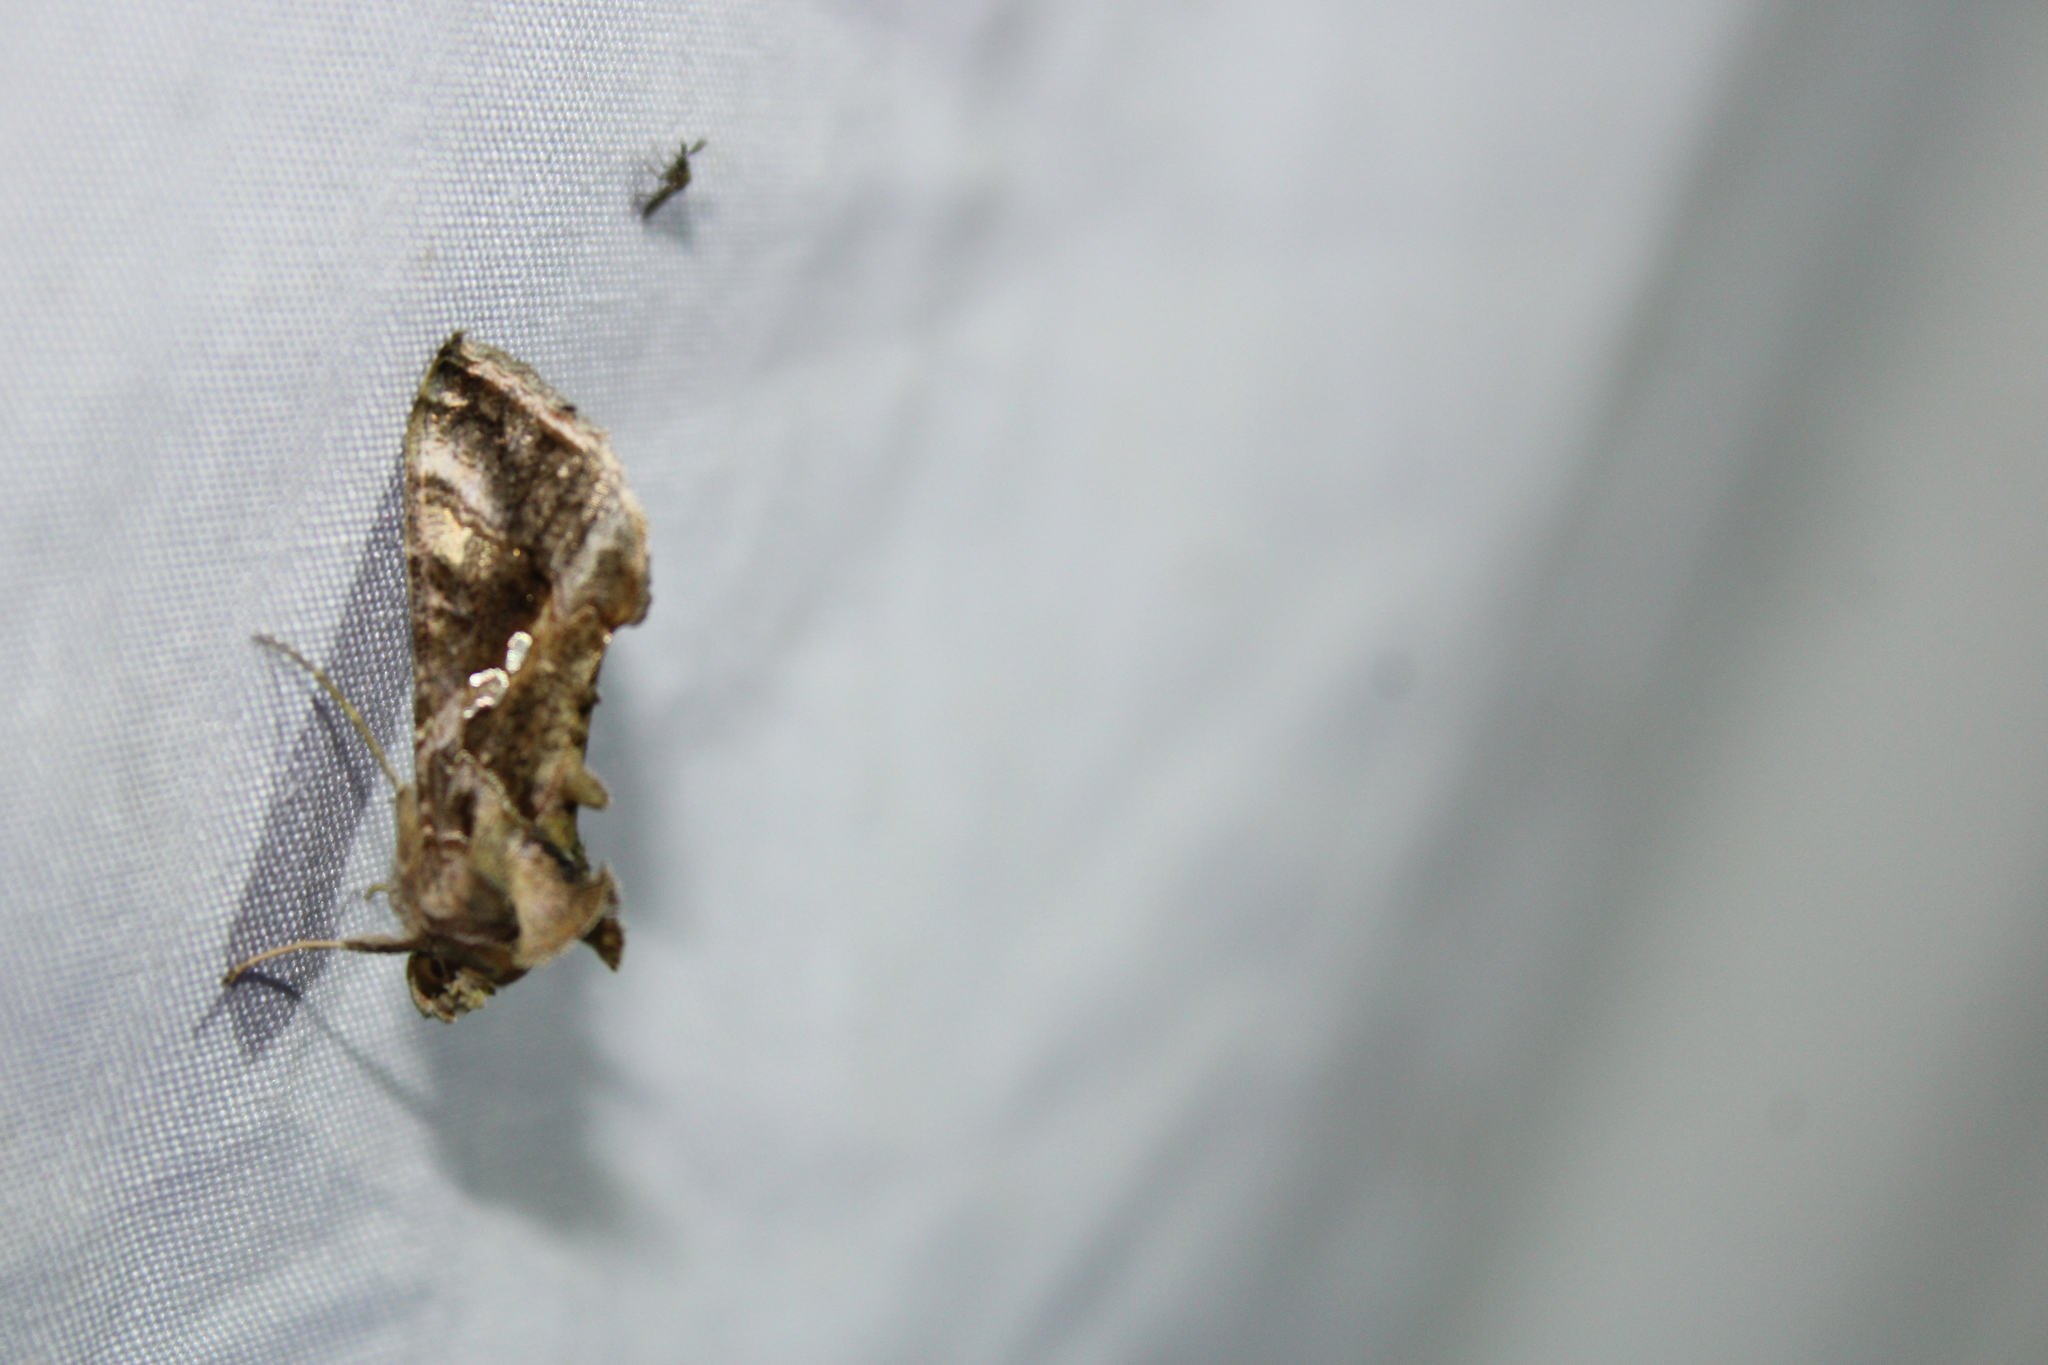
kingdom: Animalia
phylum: Arthropoda
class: Insecta
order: Lepidoptera
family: Noctuidae
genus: Chrysodeixis
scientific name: Chrysodeixis includens
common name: Cutworm moth
